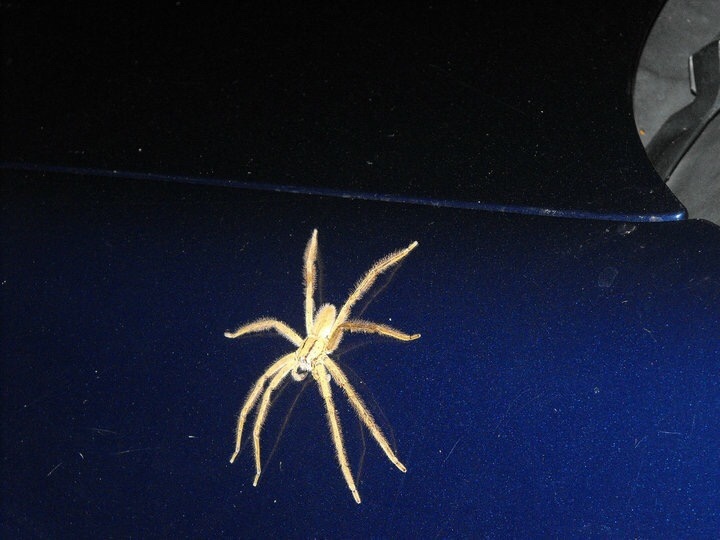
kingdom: Animalia
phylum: Arthropoda
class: Arachnida
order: Araneae
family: Trechaleidae
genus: Cupiennius
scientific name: Cupiennius salei
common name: Wandering spiders
